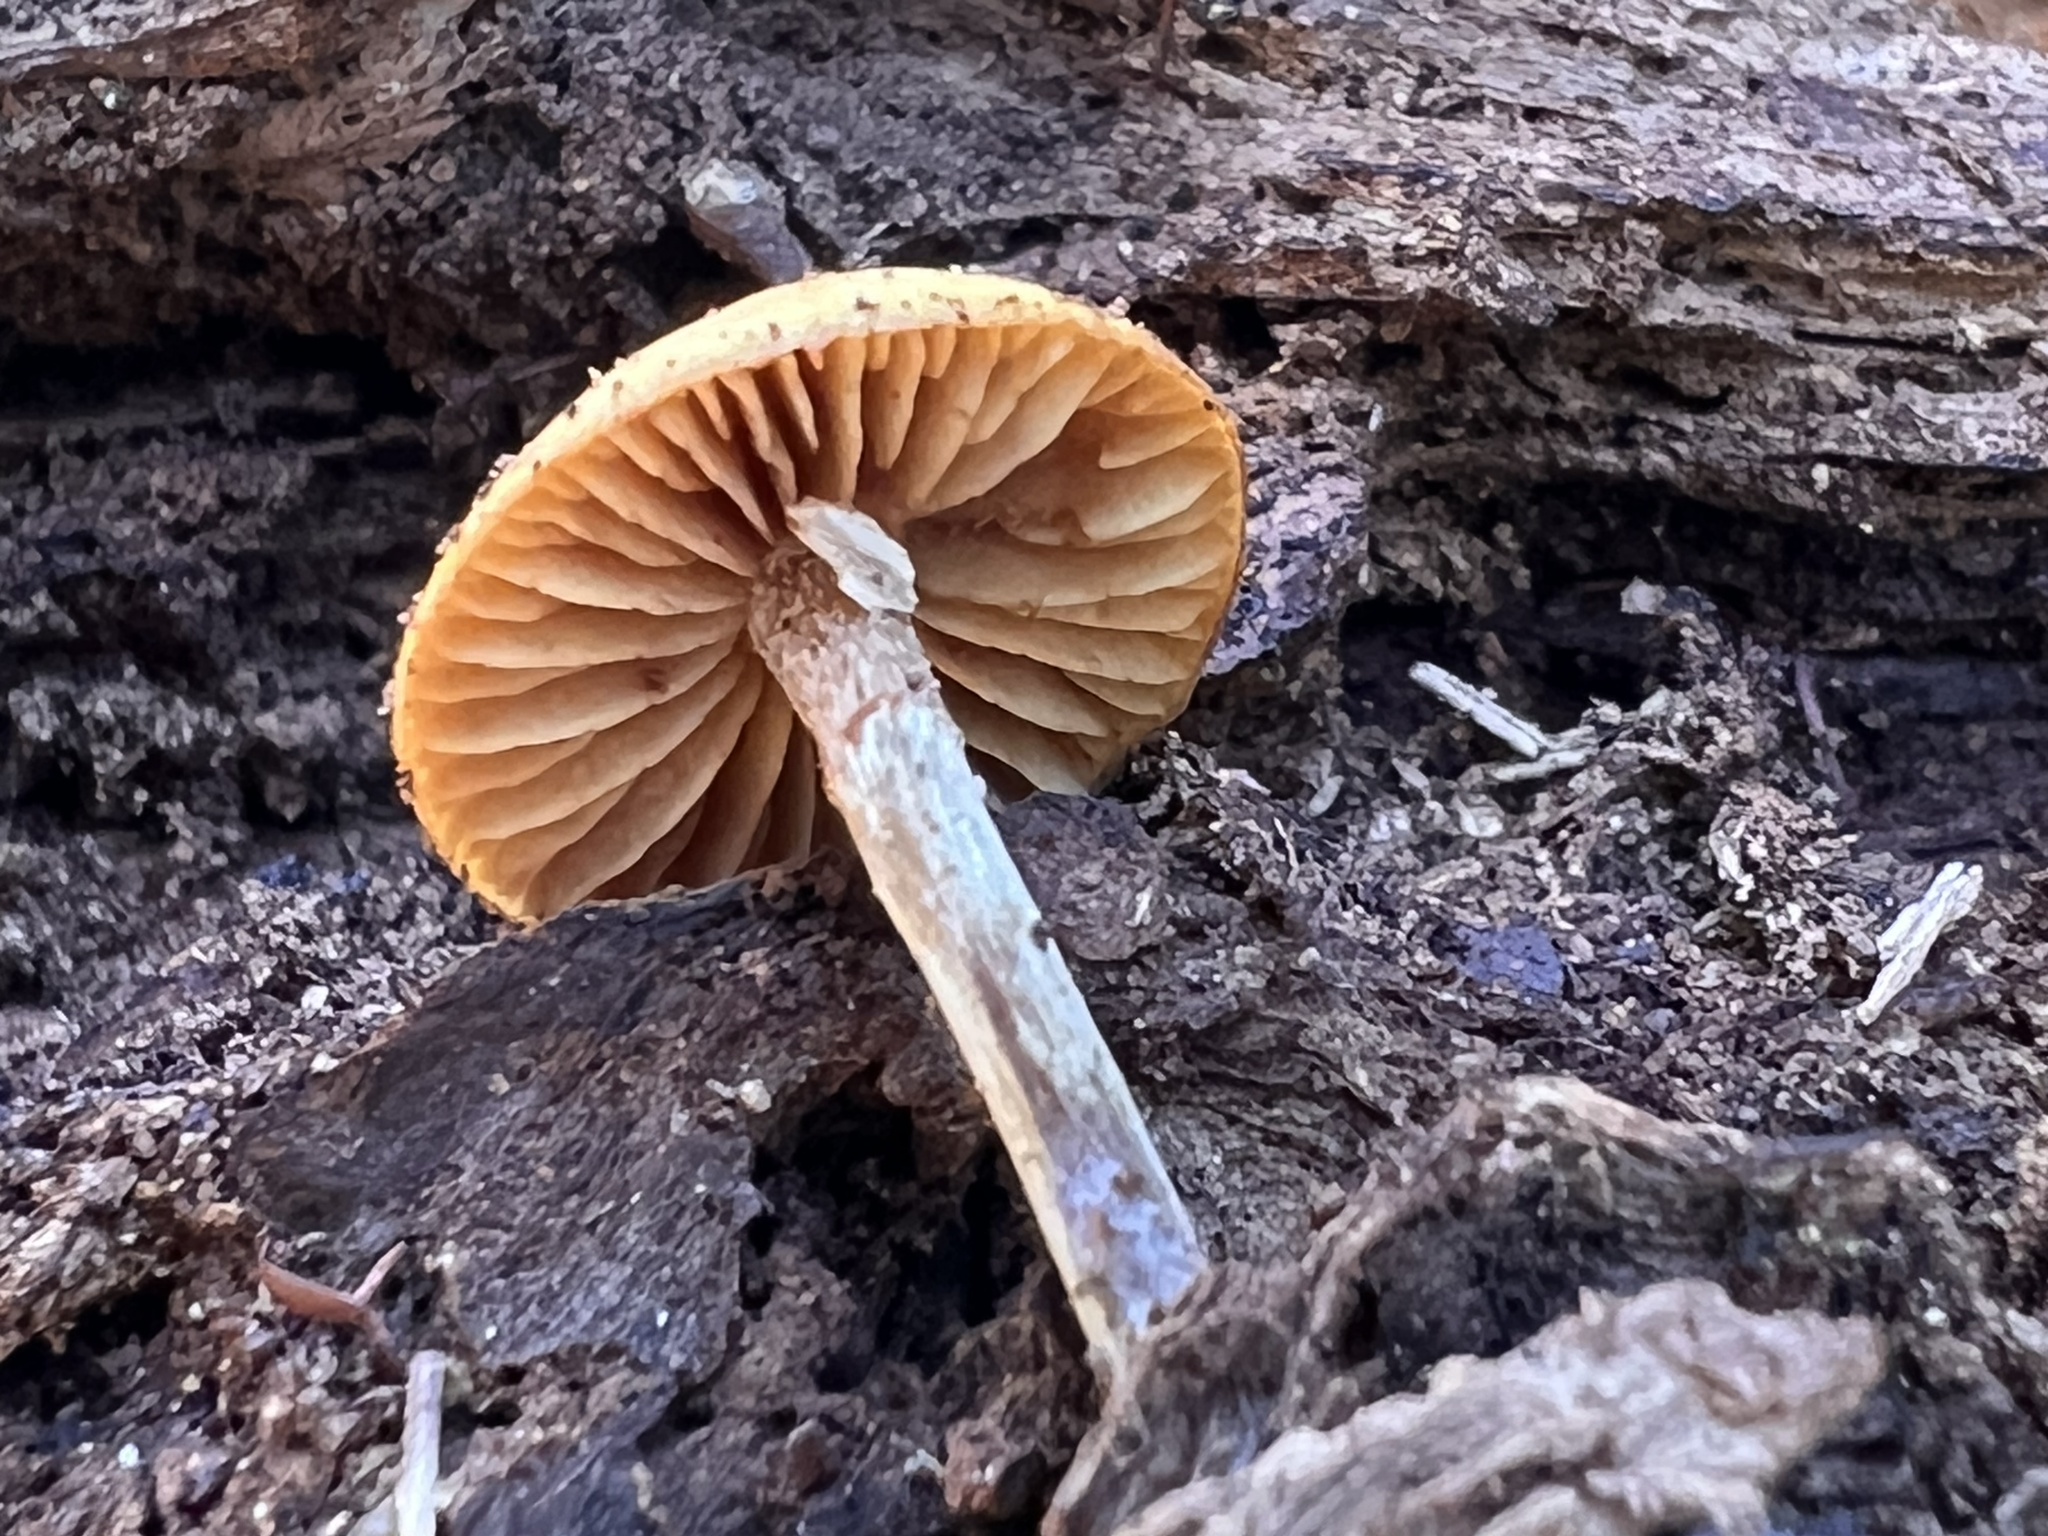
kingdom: Fungi
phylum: Basidiomycota
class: Agaricomycetes
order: Agaricales
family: Hymenogastraceae
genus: Galerina
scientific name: Galerina marginata
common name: Funeral bell
